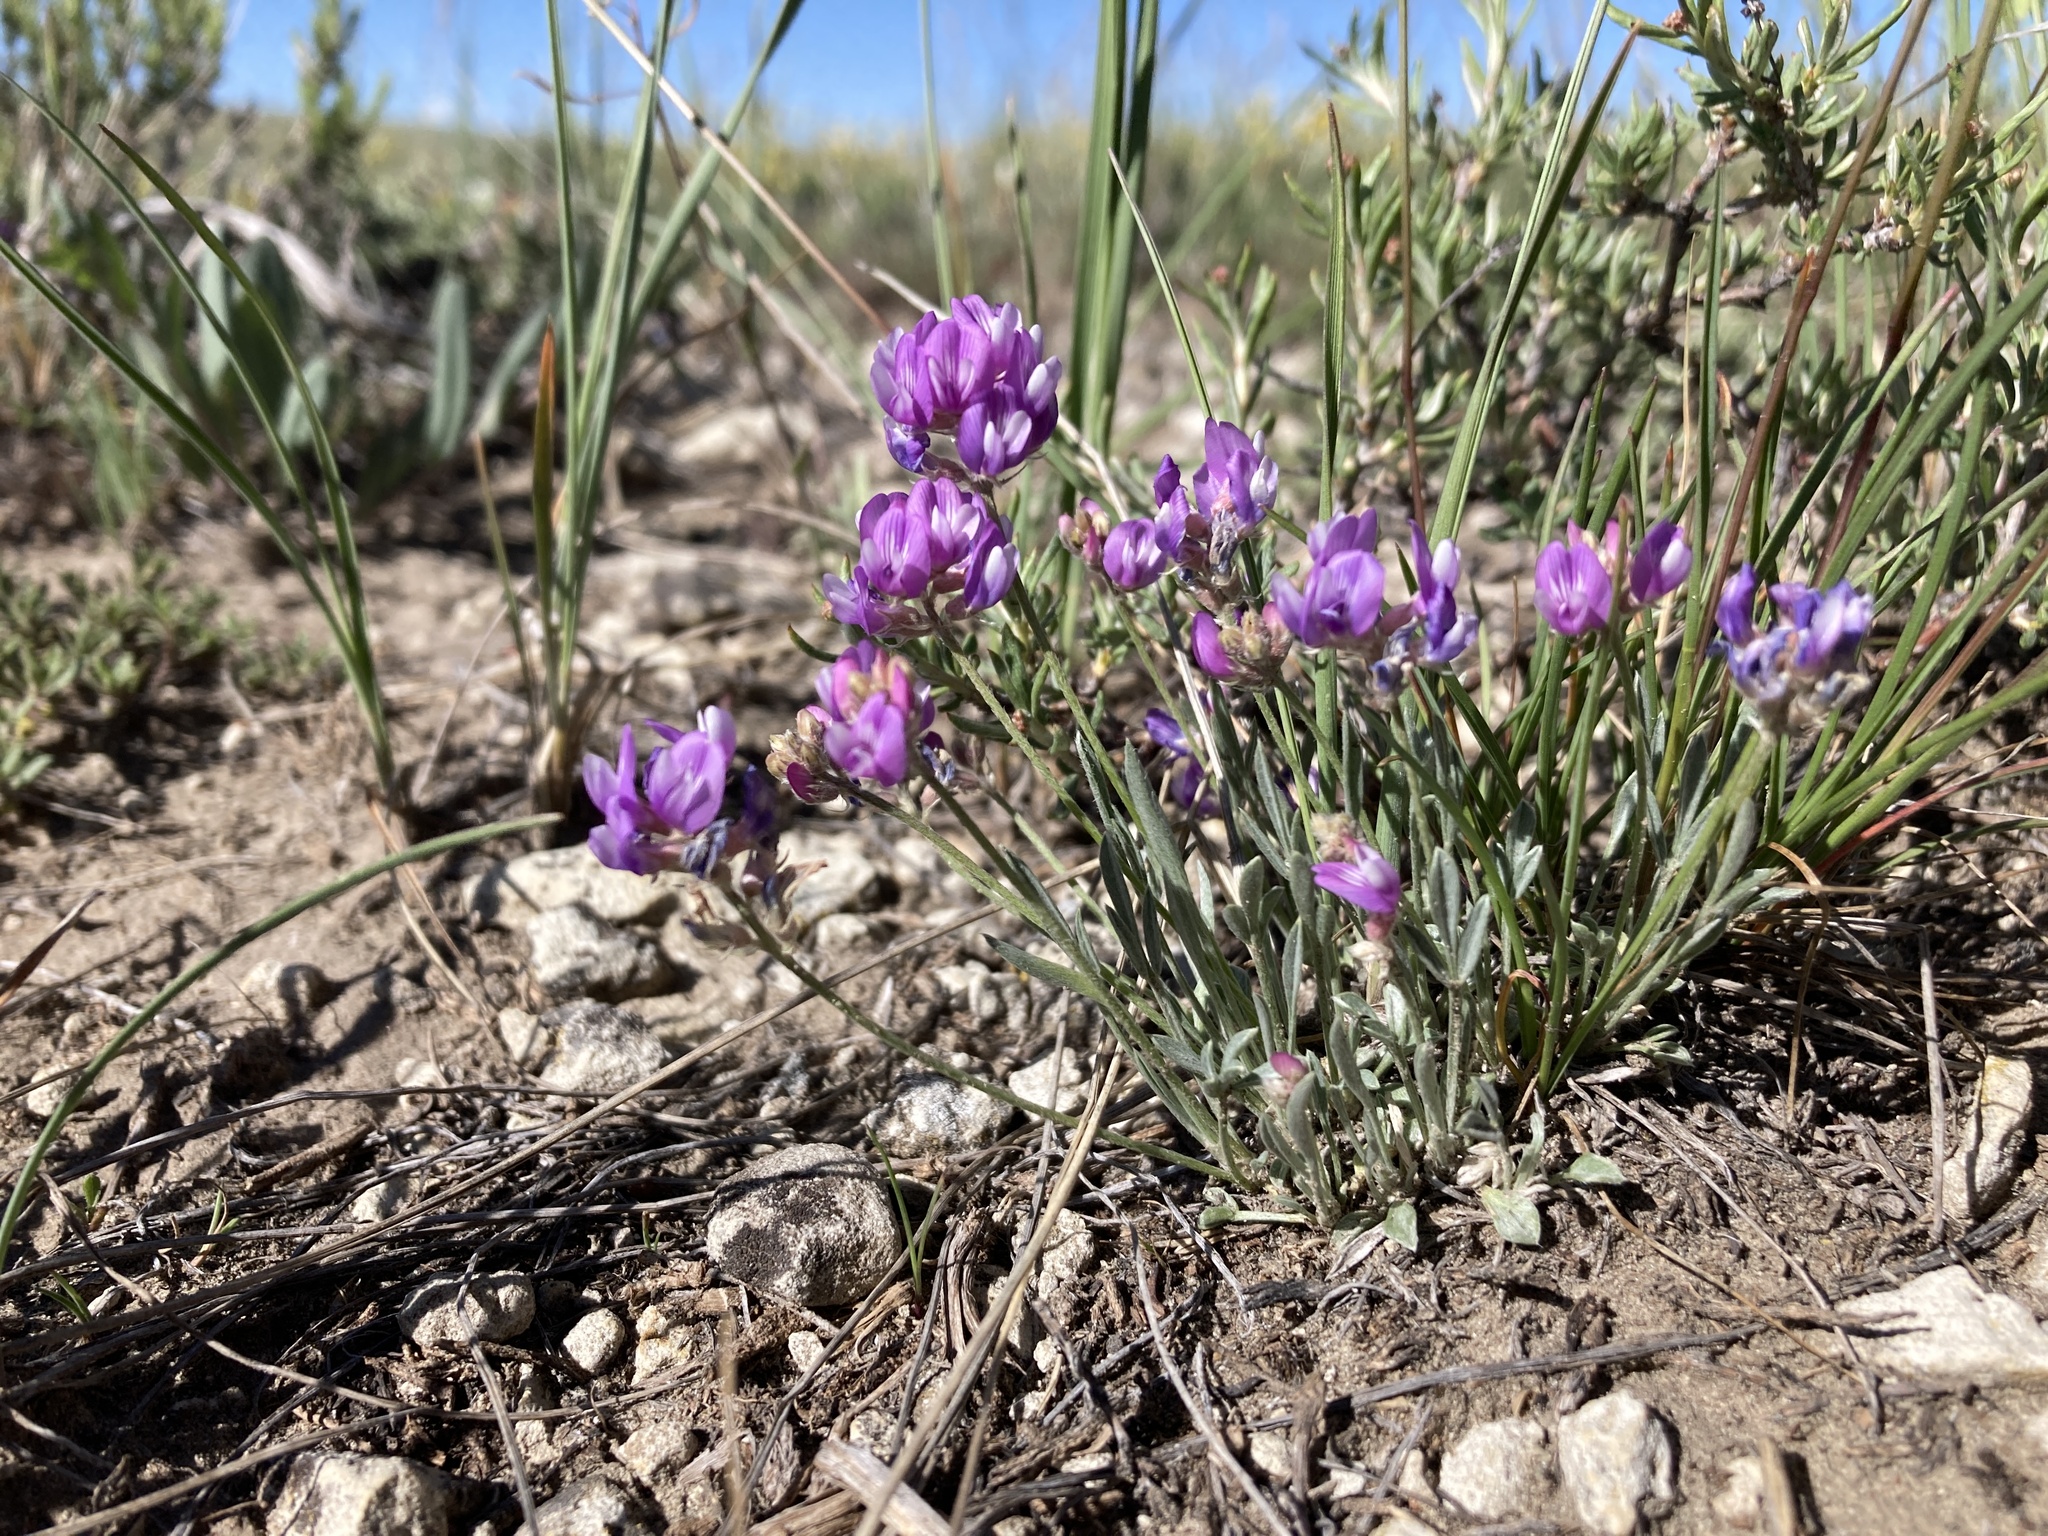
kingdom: Plantae
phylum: Tracheophyta
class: Magnoliopsida
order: Fabales
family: Fabaceae
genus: Astragalus
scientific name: Astragalus spatulatus
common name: Draba milk-vetch
